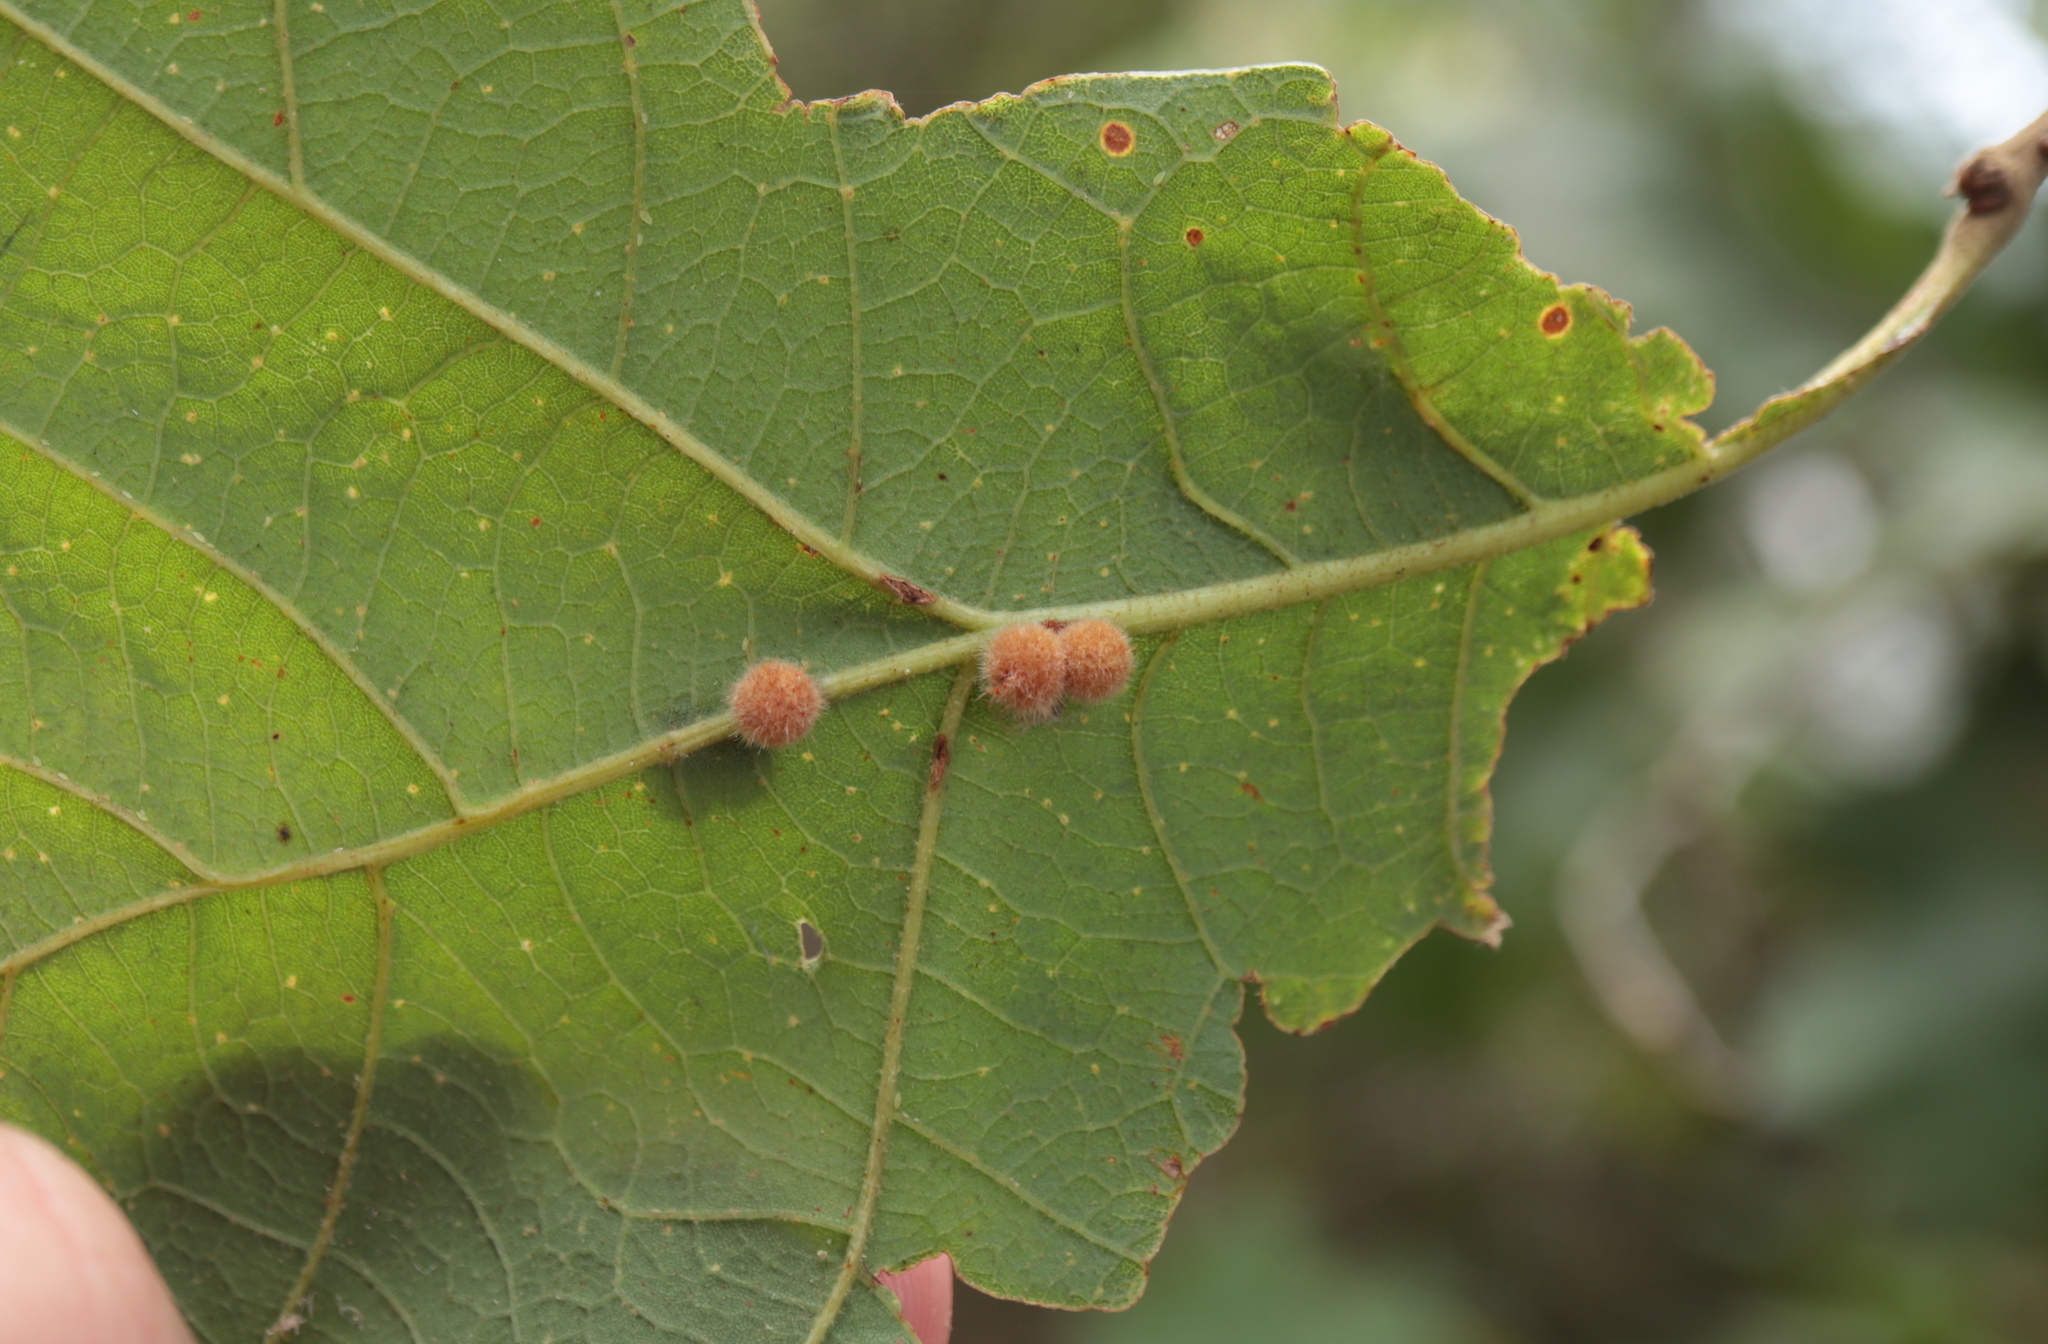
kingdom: Animalia
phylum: Arthropoda
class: Insecta
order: Hymenoptera
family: Cynipidae
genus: Biorhiza
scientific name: Biorhiza Sphaeroteras carolina
